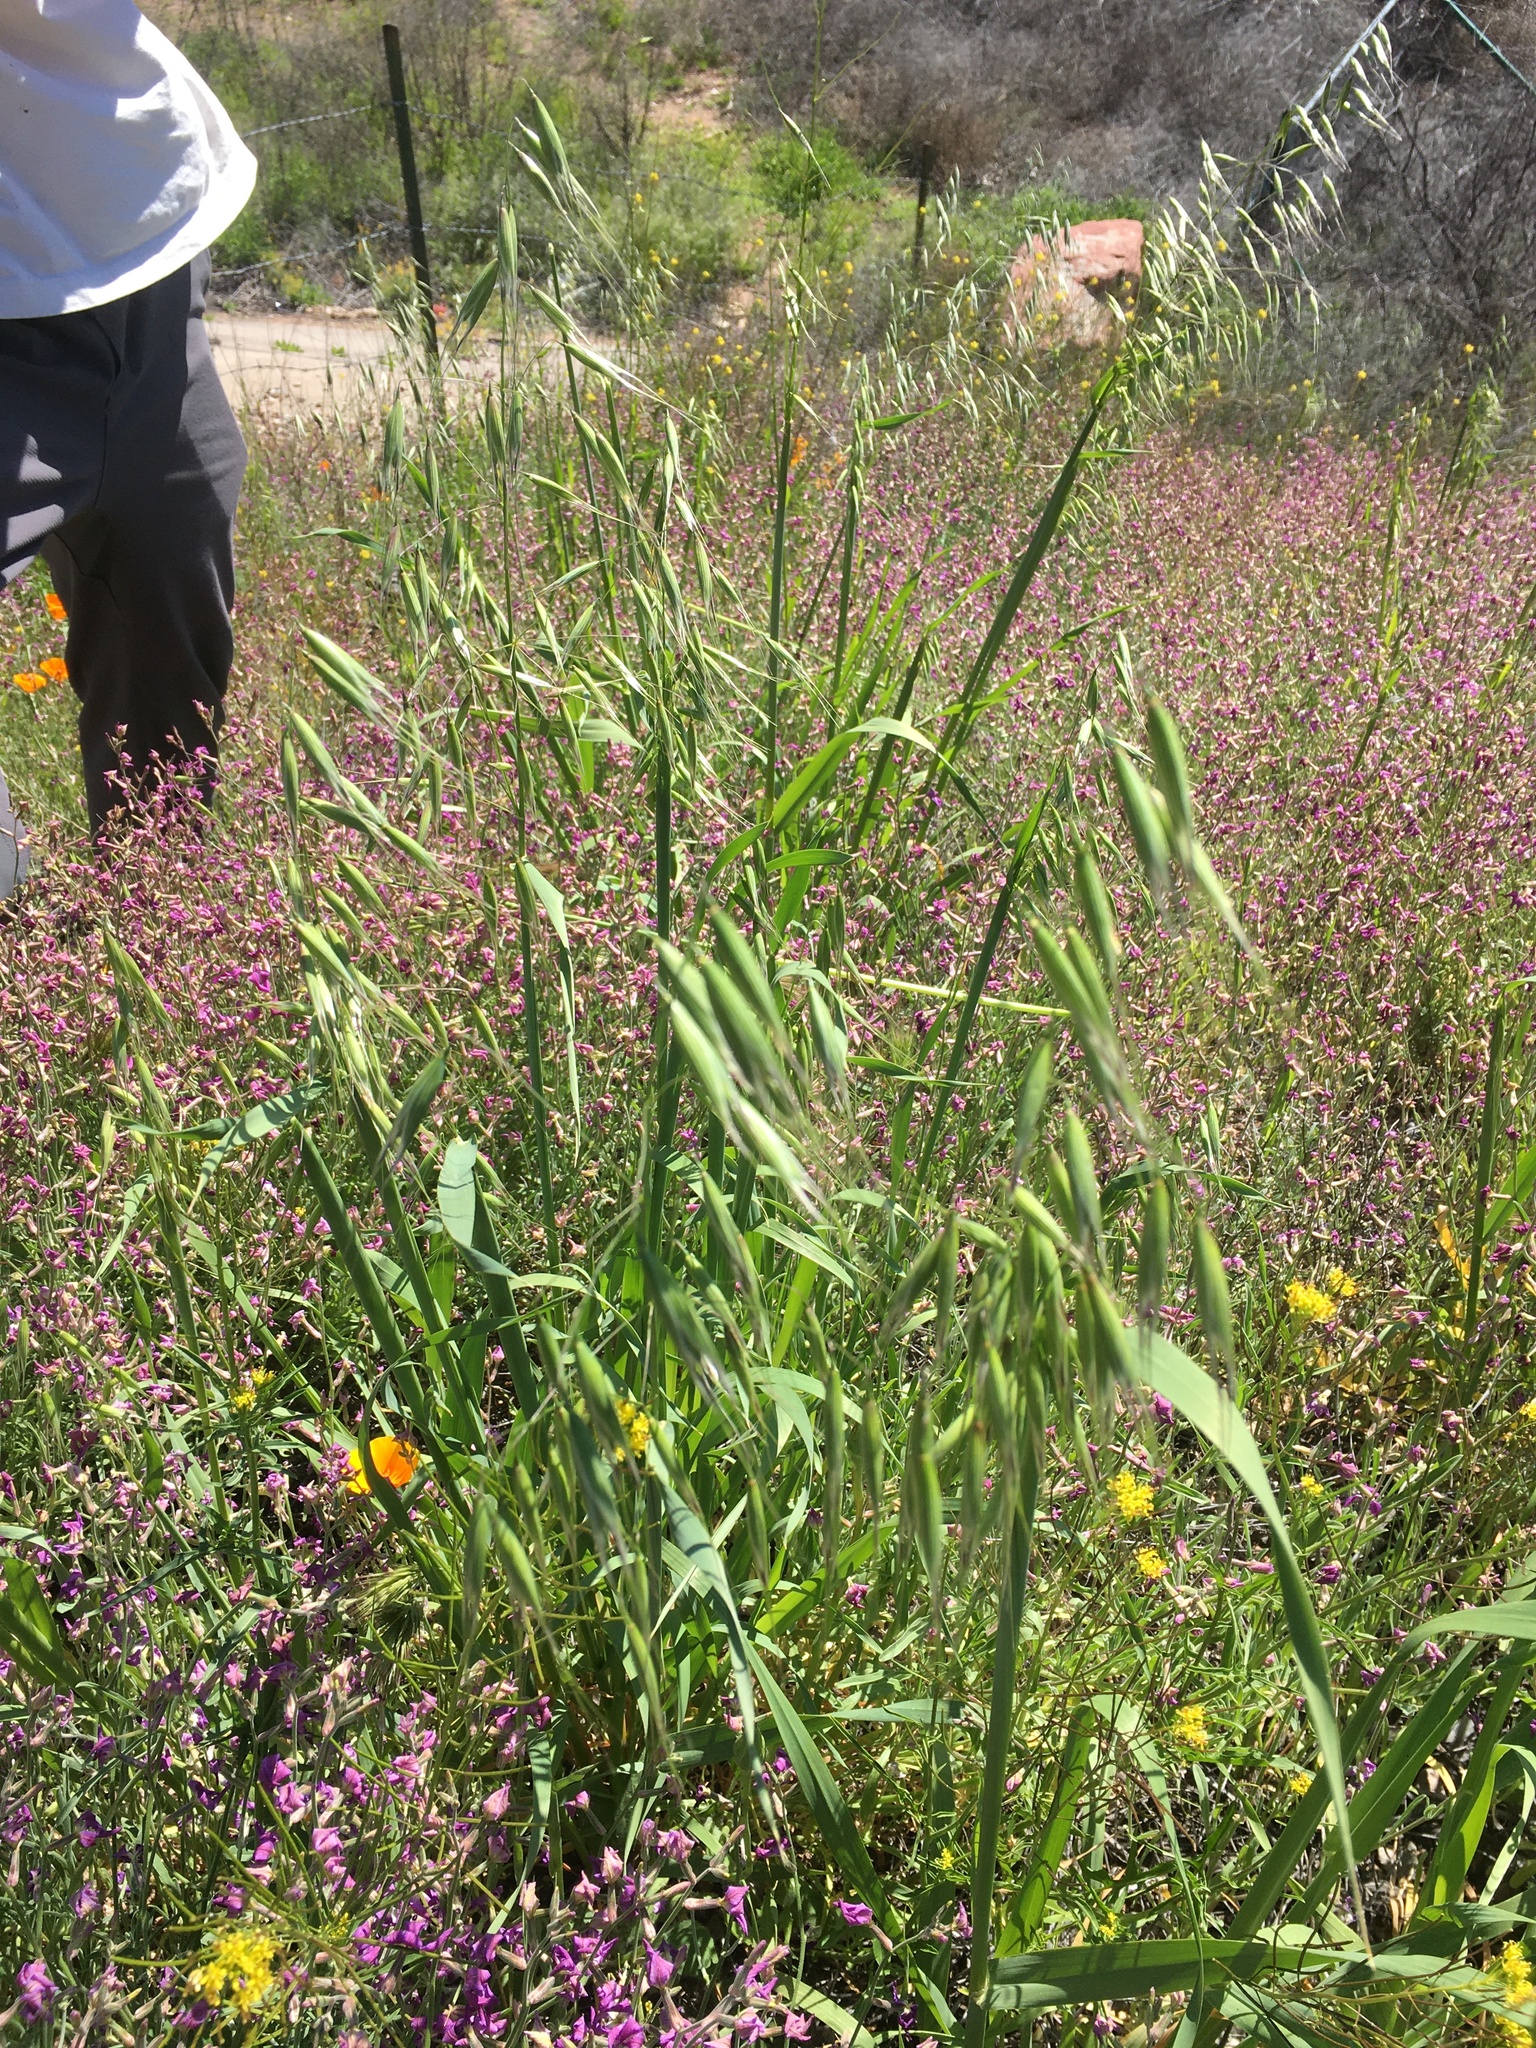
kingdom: Plantae
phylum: Tracheophyta
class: Liliopsida
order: Poales
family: Poaceae
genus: Avena
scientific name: Avena fatua
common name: Wild oat
